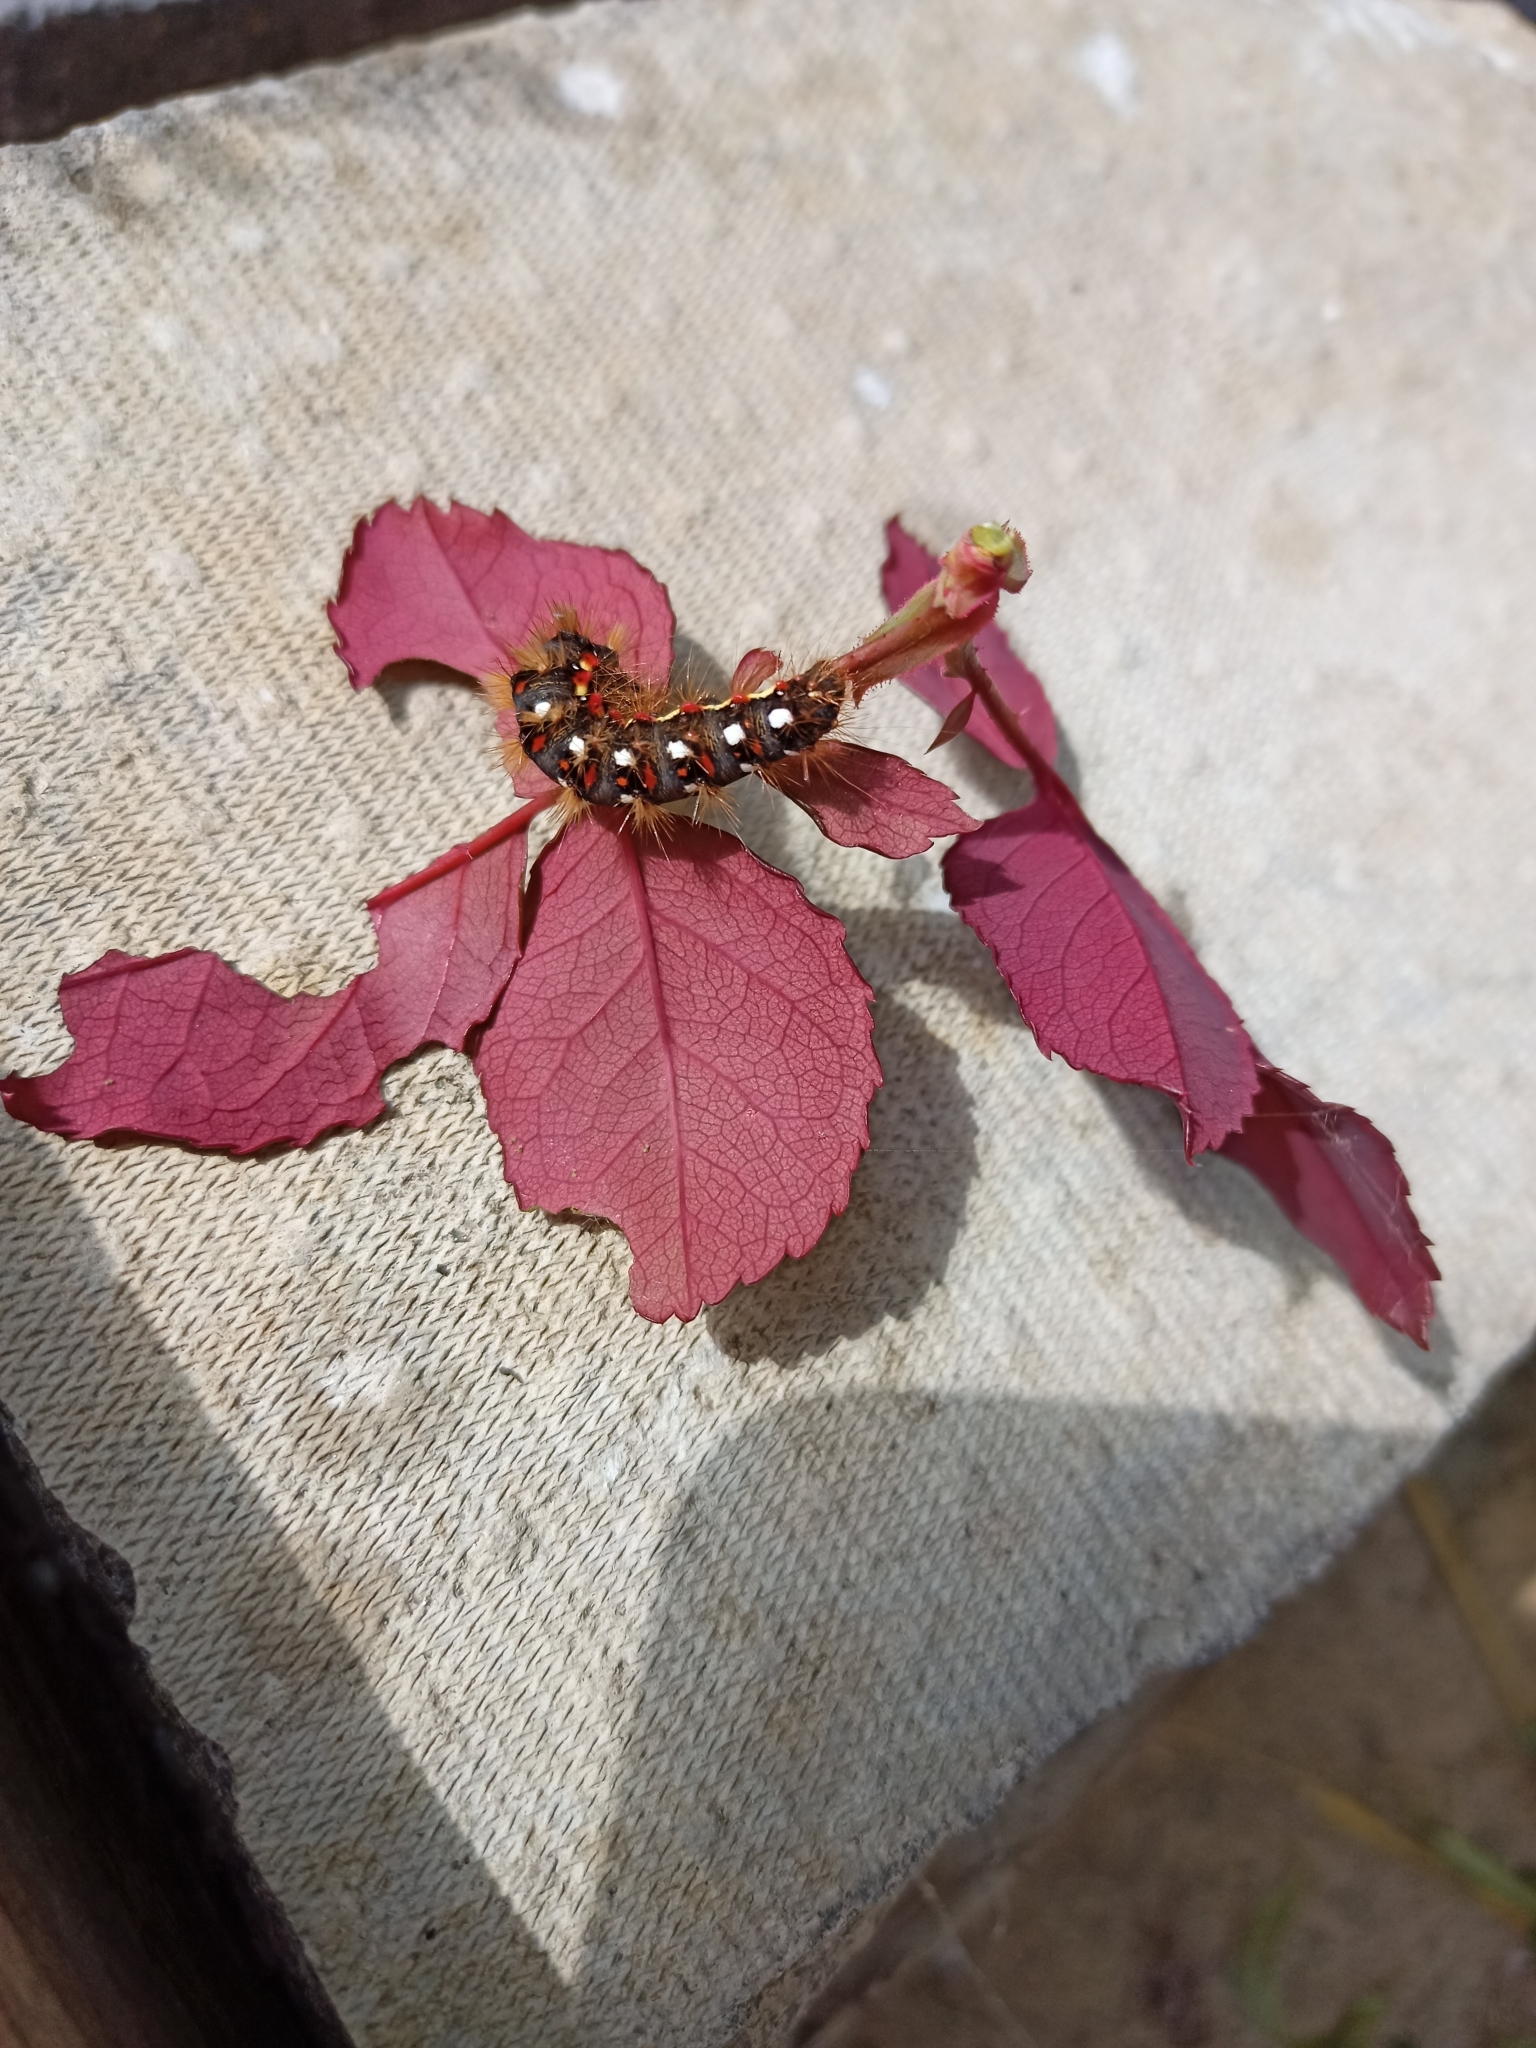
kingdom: Animalia
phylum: Arthropoda
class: Insecta
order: Lepidoptera
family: Noctuidae
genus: Acronicta
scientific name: Acronicta rumicis
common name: Knot grass
